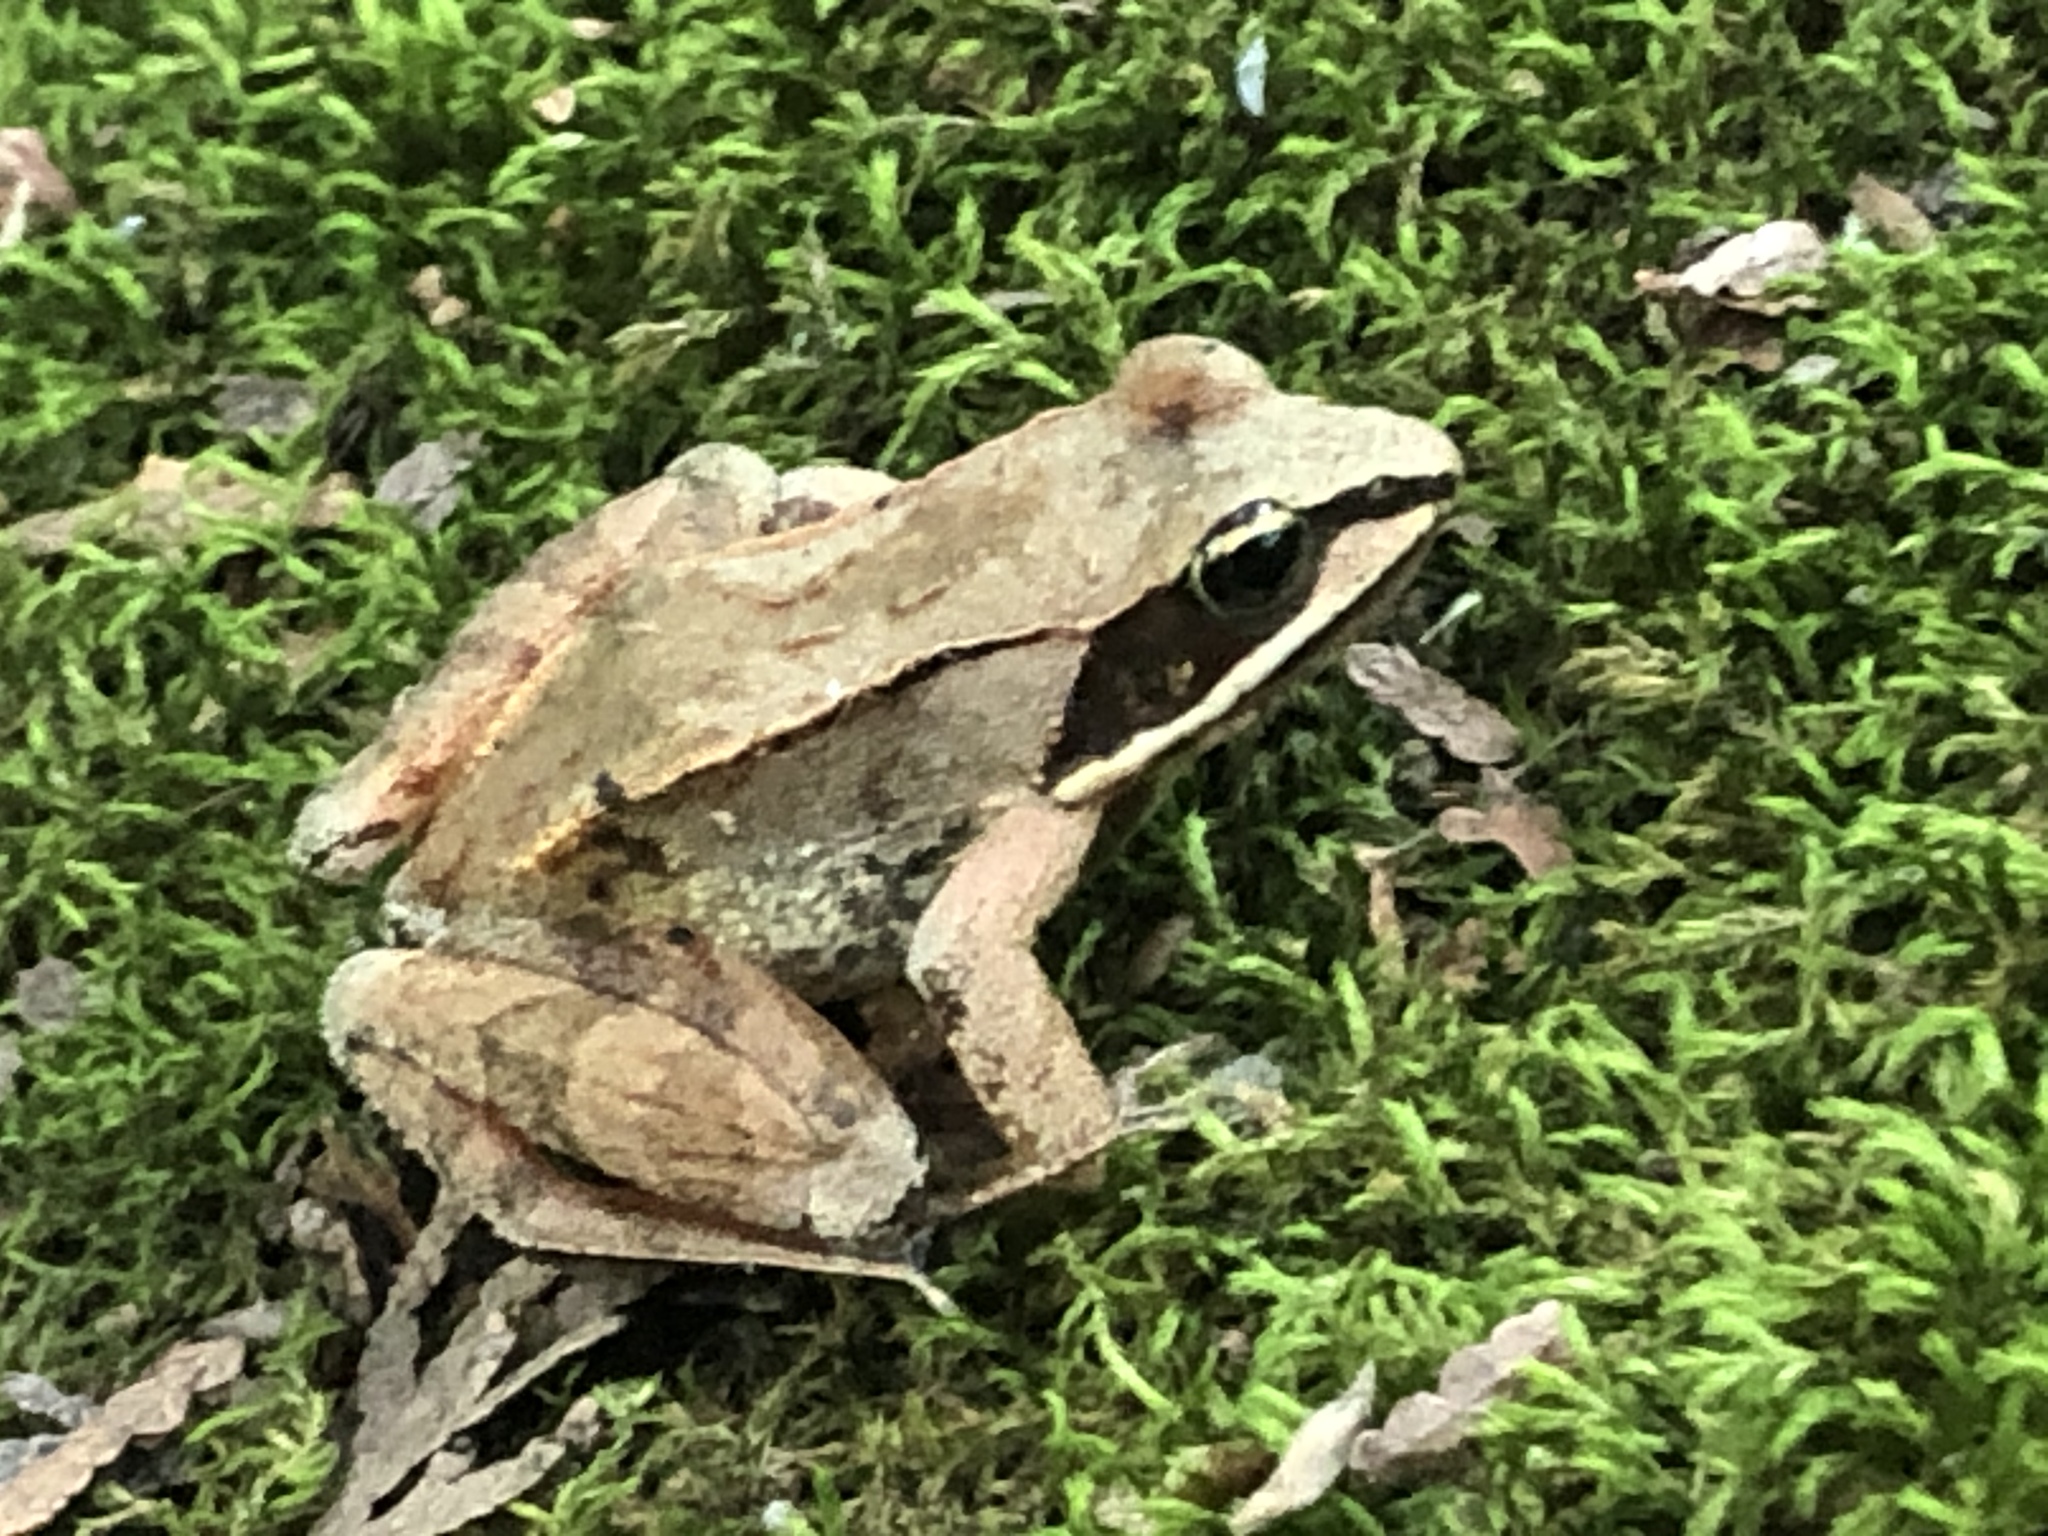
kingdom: Animalia
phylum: Chordata
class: Amphibia
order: Anura
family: Ranidae
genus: Lithobates
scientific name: Lithobates sylvaticus
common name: Wood frog
